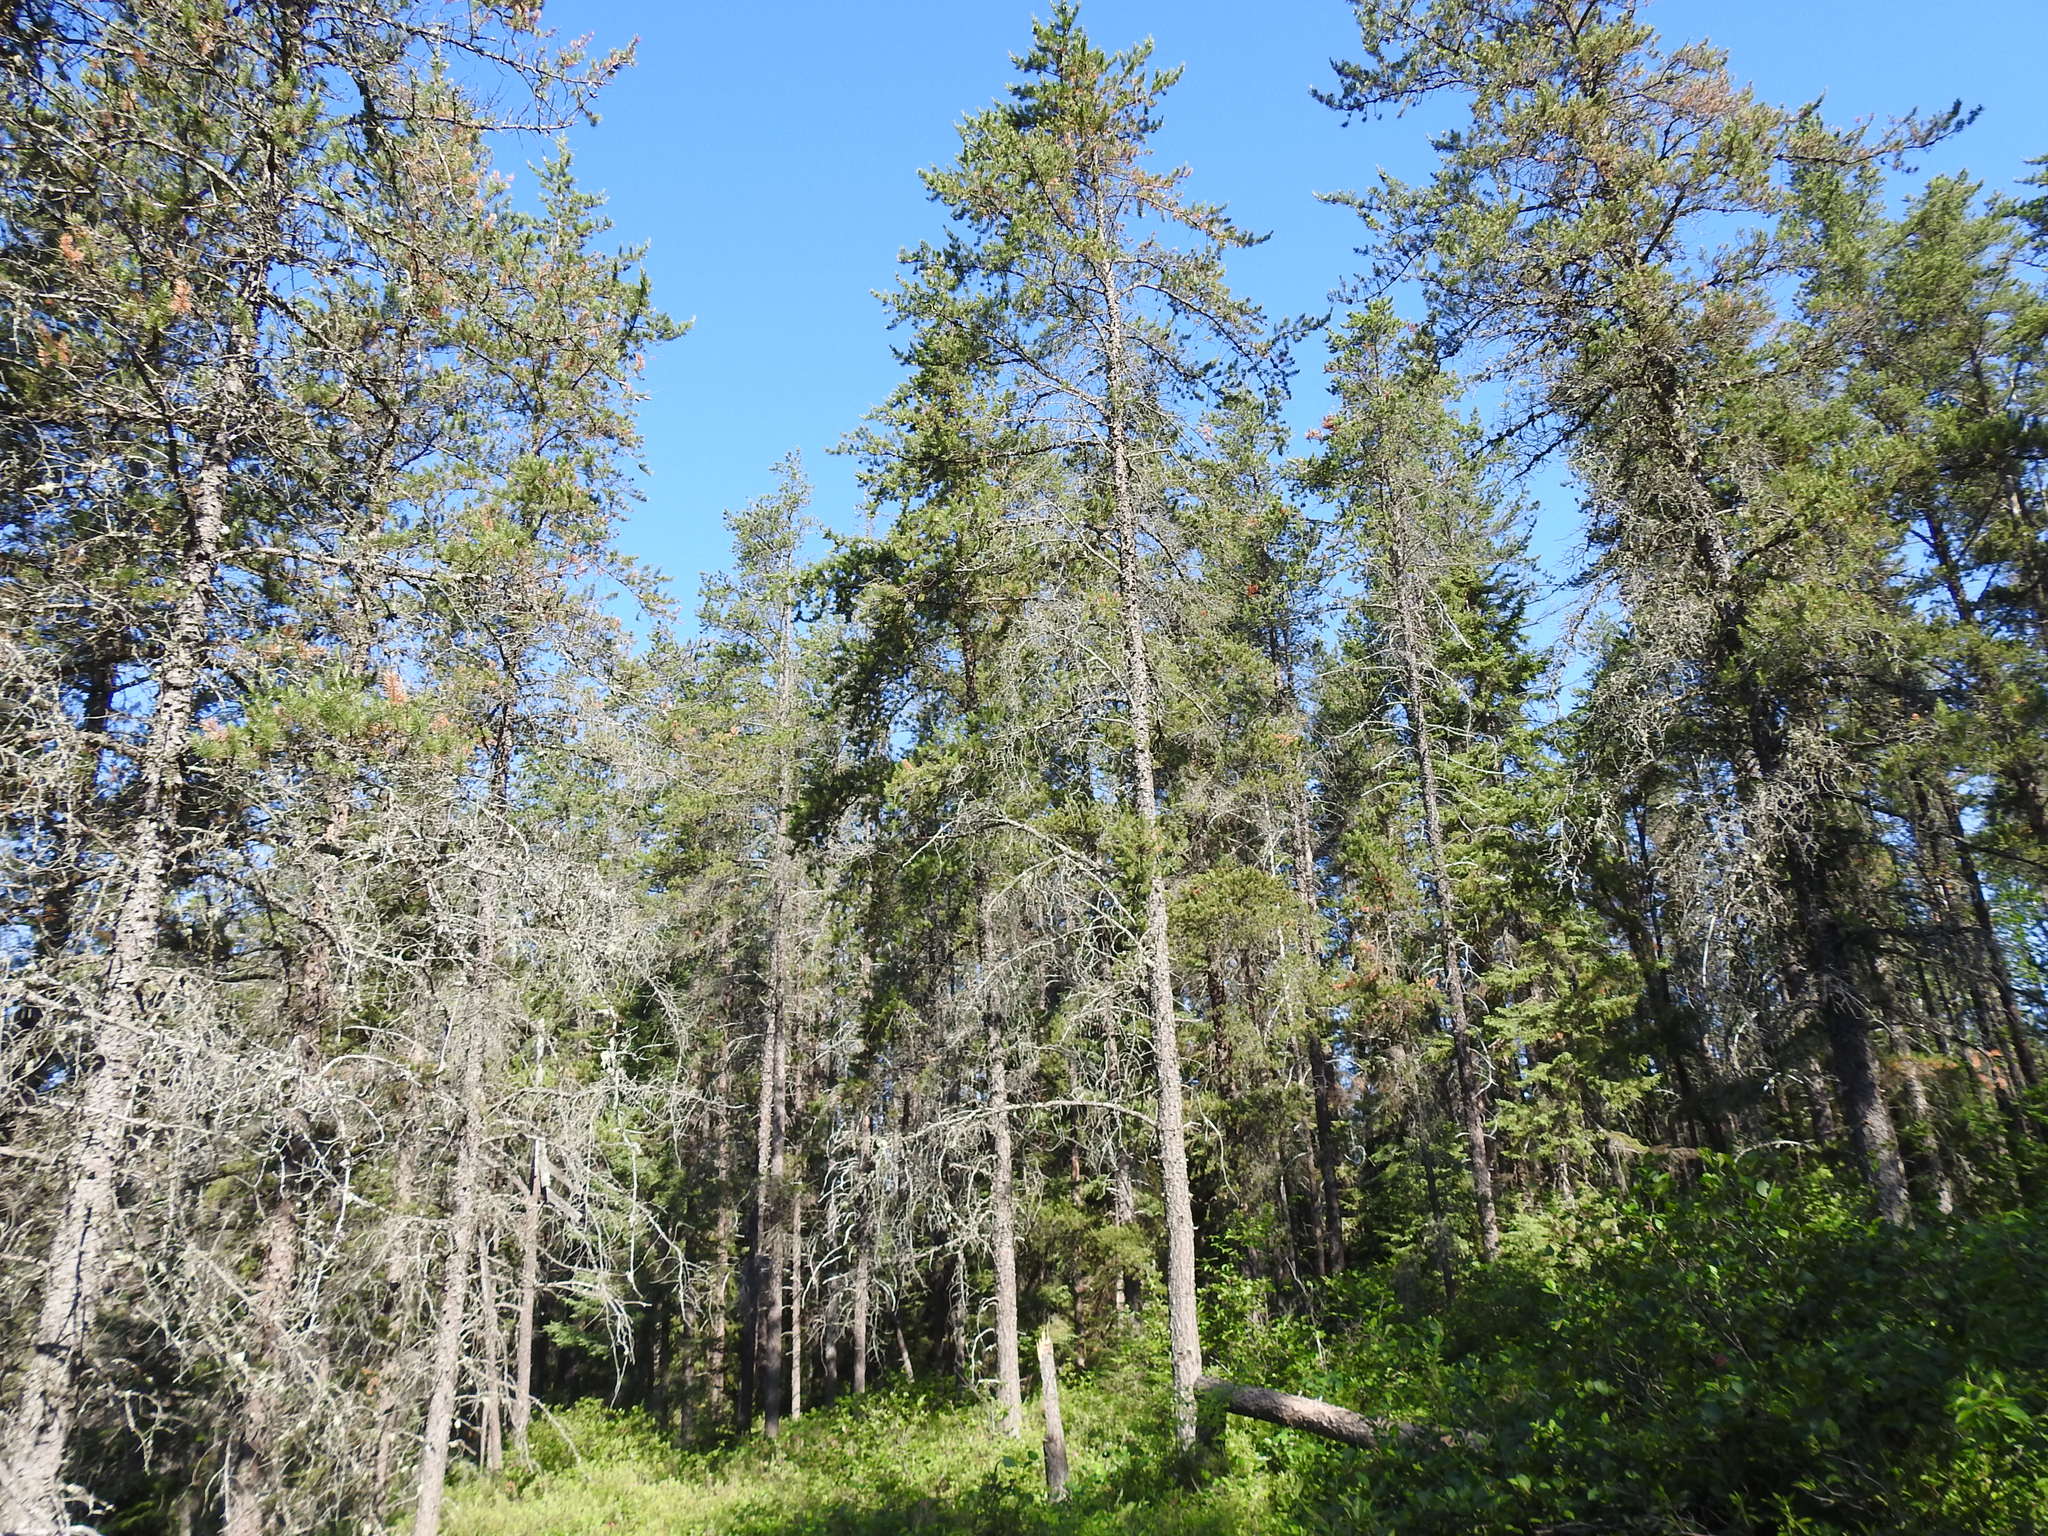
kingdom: Plantae
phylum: Tracheophyta
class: Pinopsida
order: Pinales
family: Pinaceae
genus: Pinus
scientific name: Pinus banksiana
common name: Jack pine
